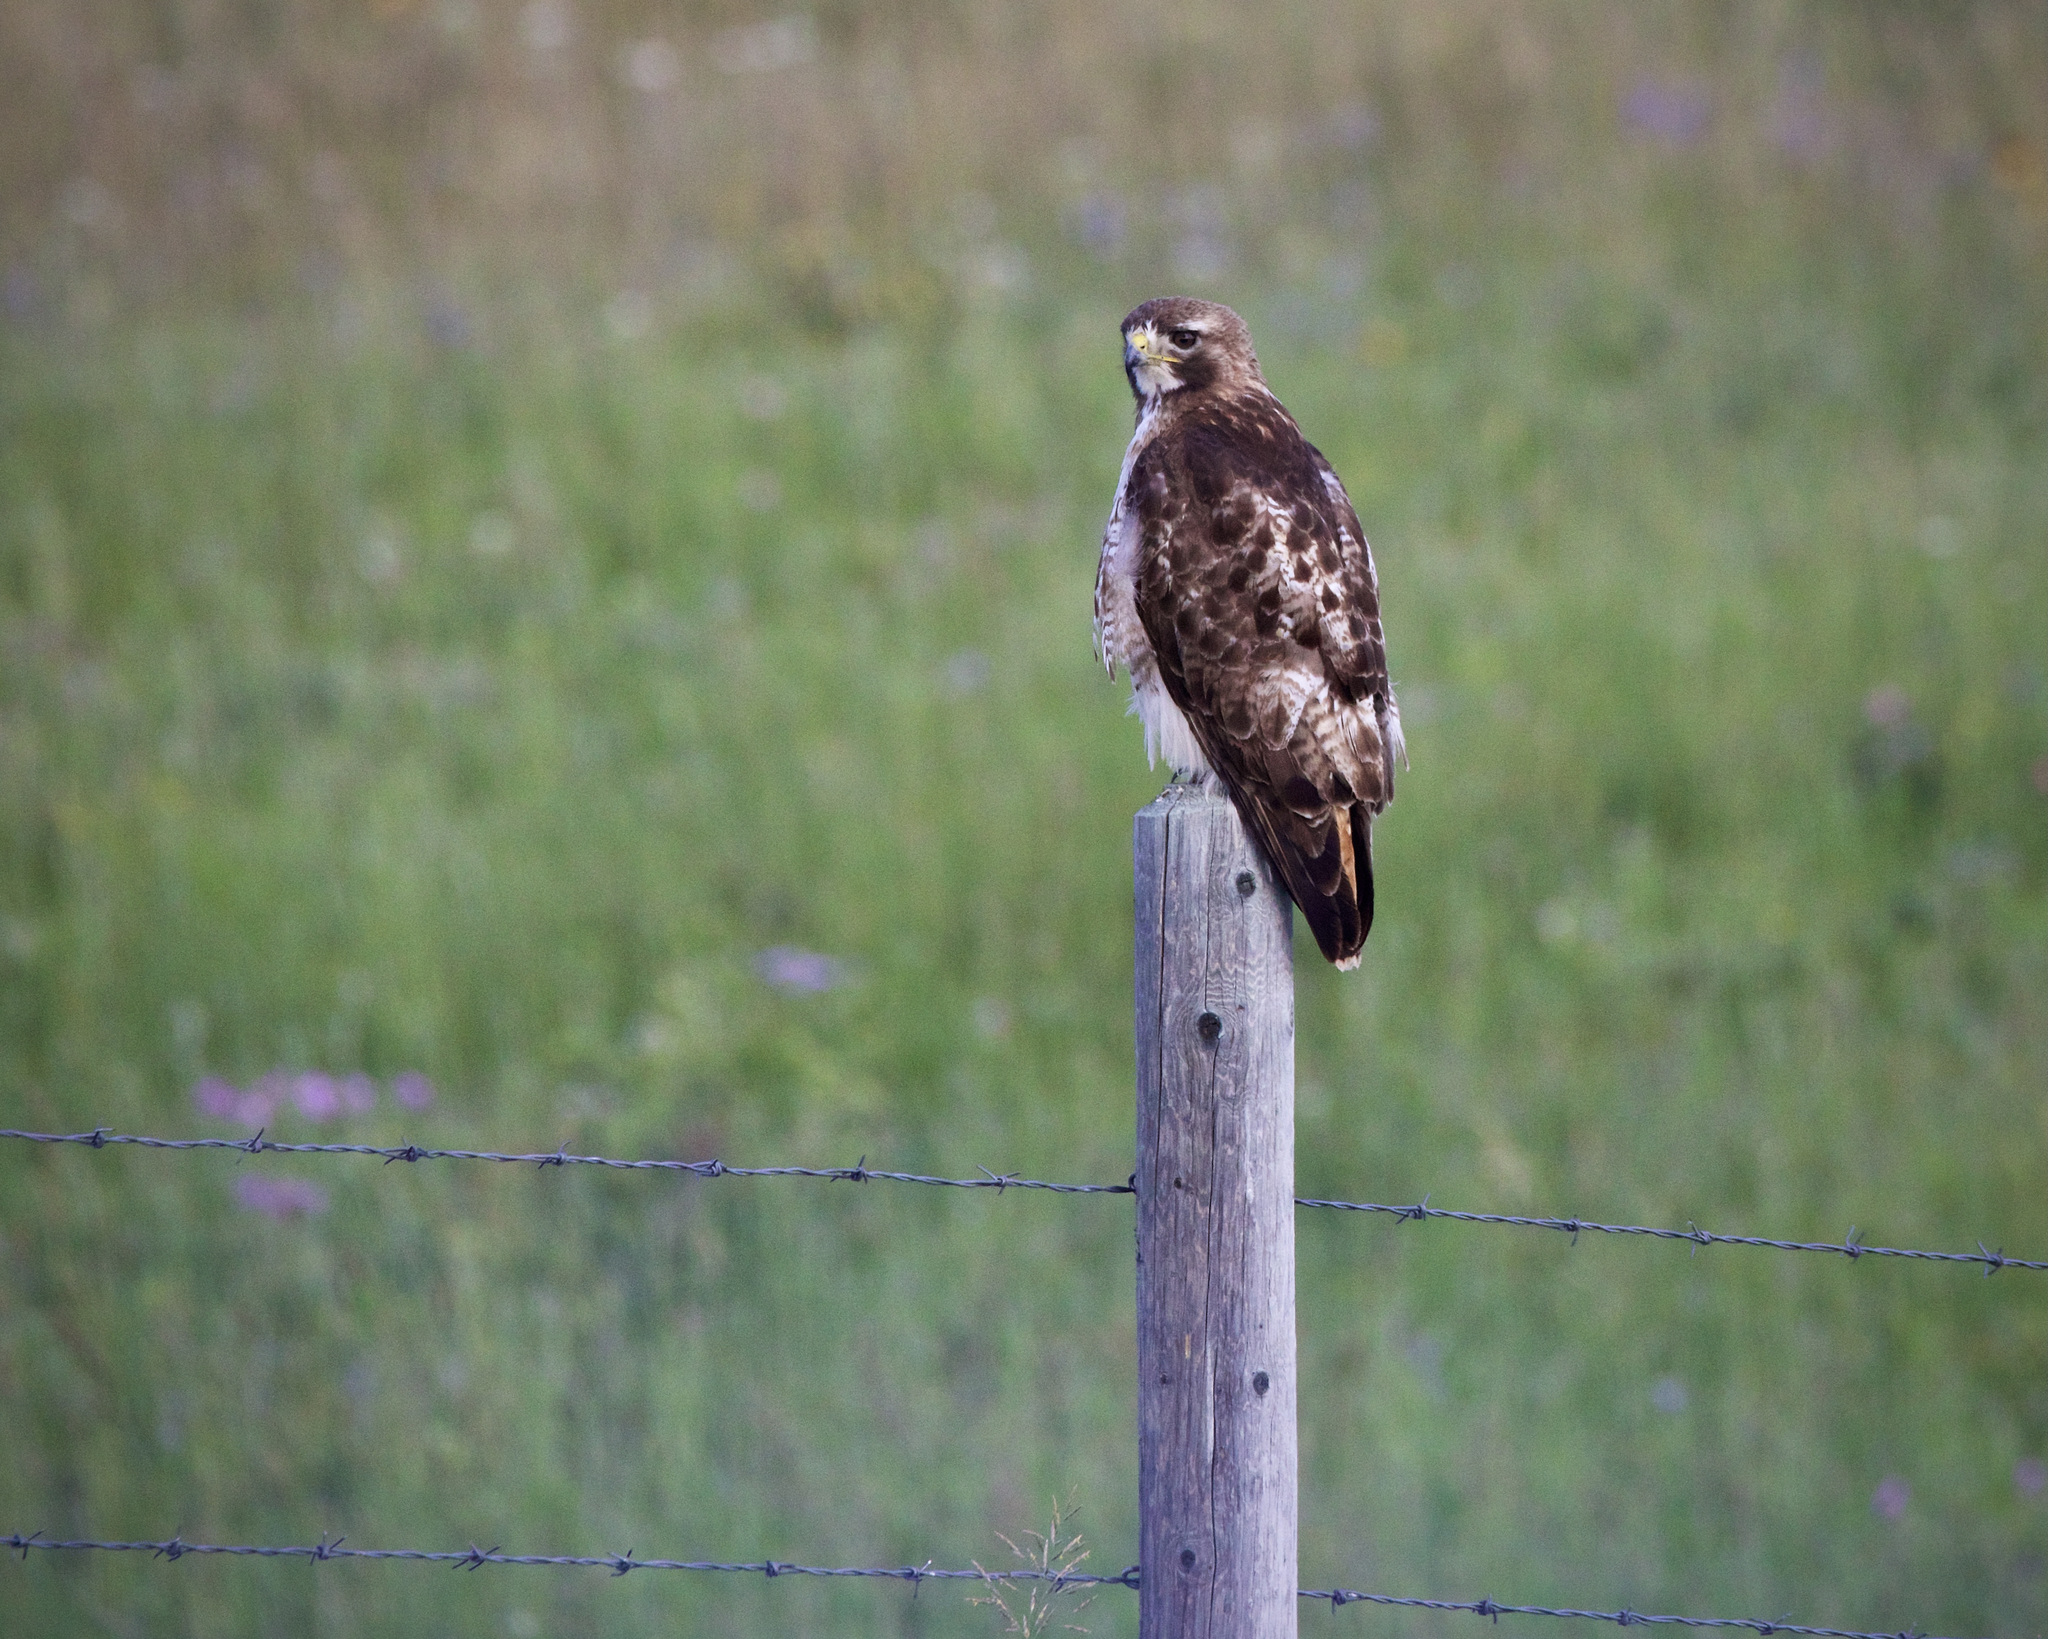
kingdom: Animalia
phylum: Chordata
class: Aves
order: Accipitriformes
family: Accipitridae
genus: Buteo
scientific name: Buteo jamaicensis
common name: Red-tailed hawk
